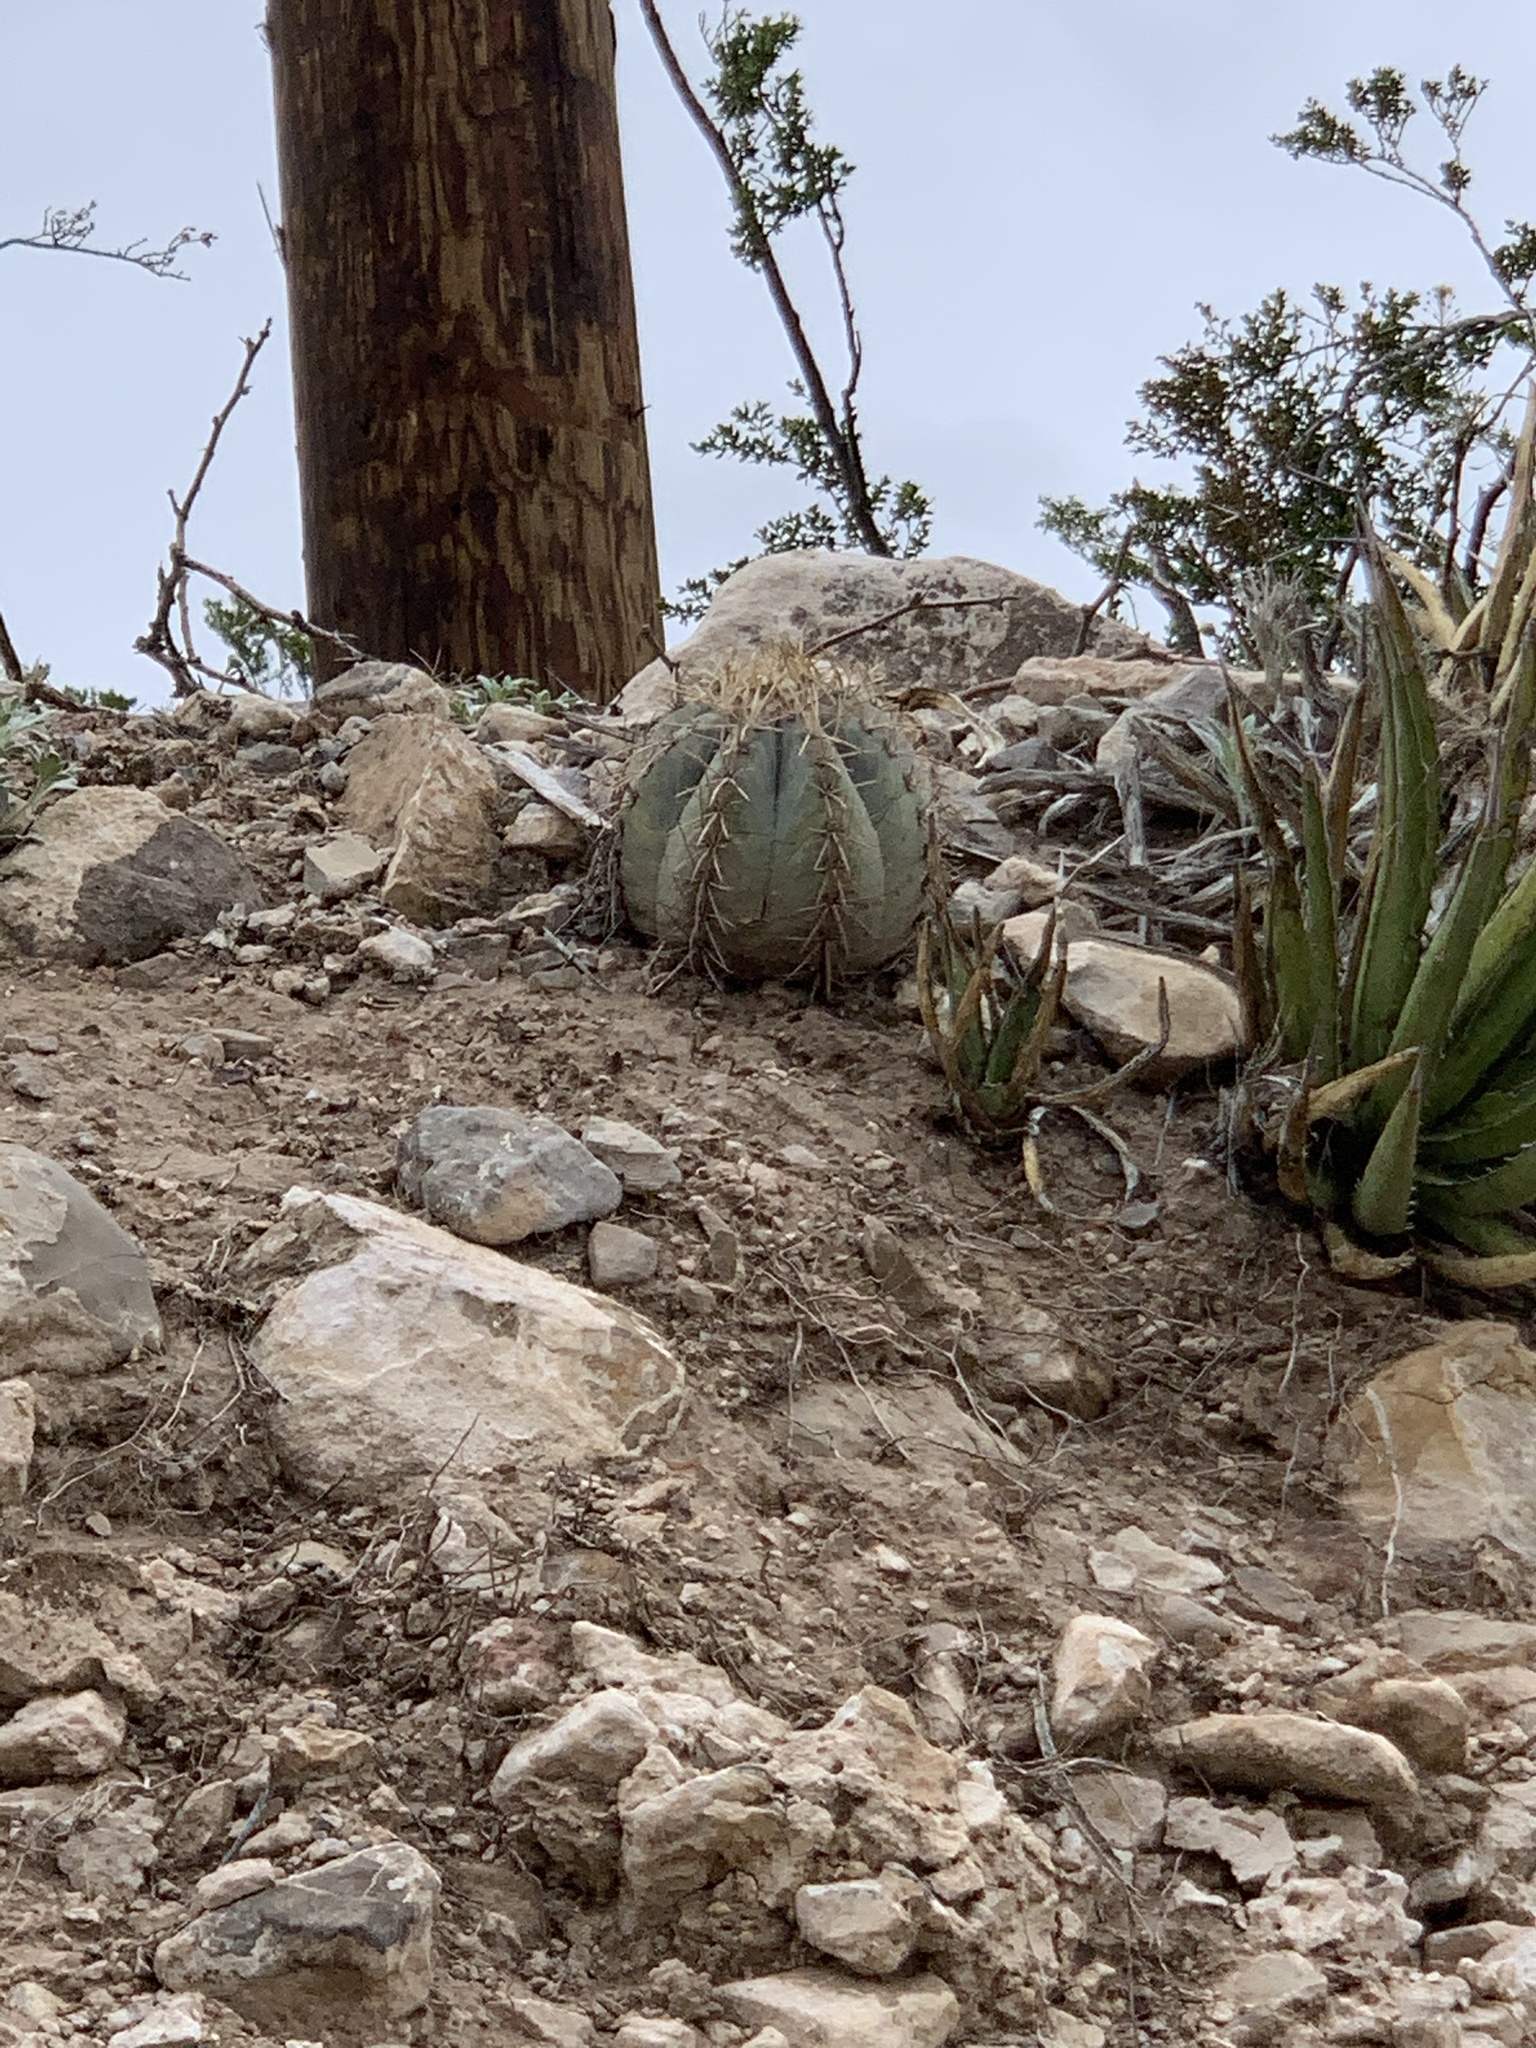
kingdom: Plantae
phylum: Tracheophyta
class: Magnoliopsida
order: Caryophyllales
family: Cactaceae
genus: Echinocactus
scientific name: Echinocactus horizonthalonius
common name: Devilshead
